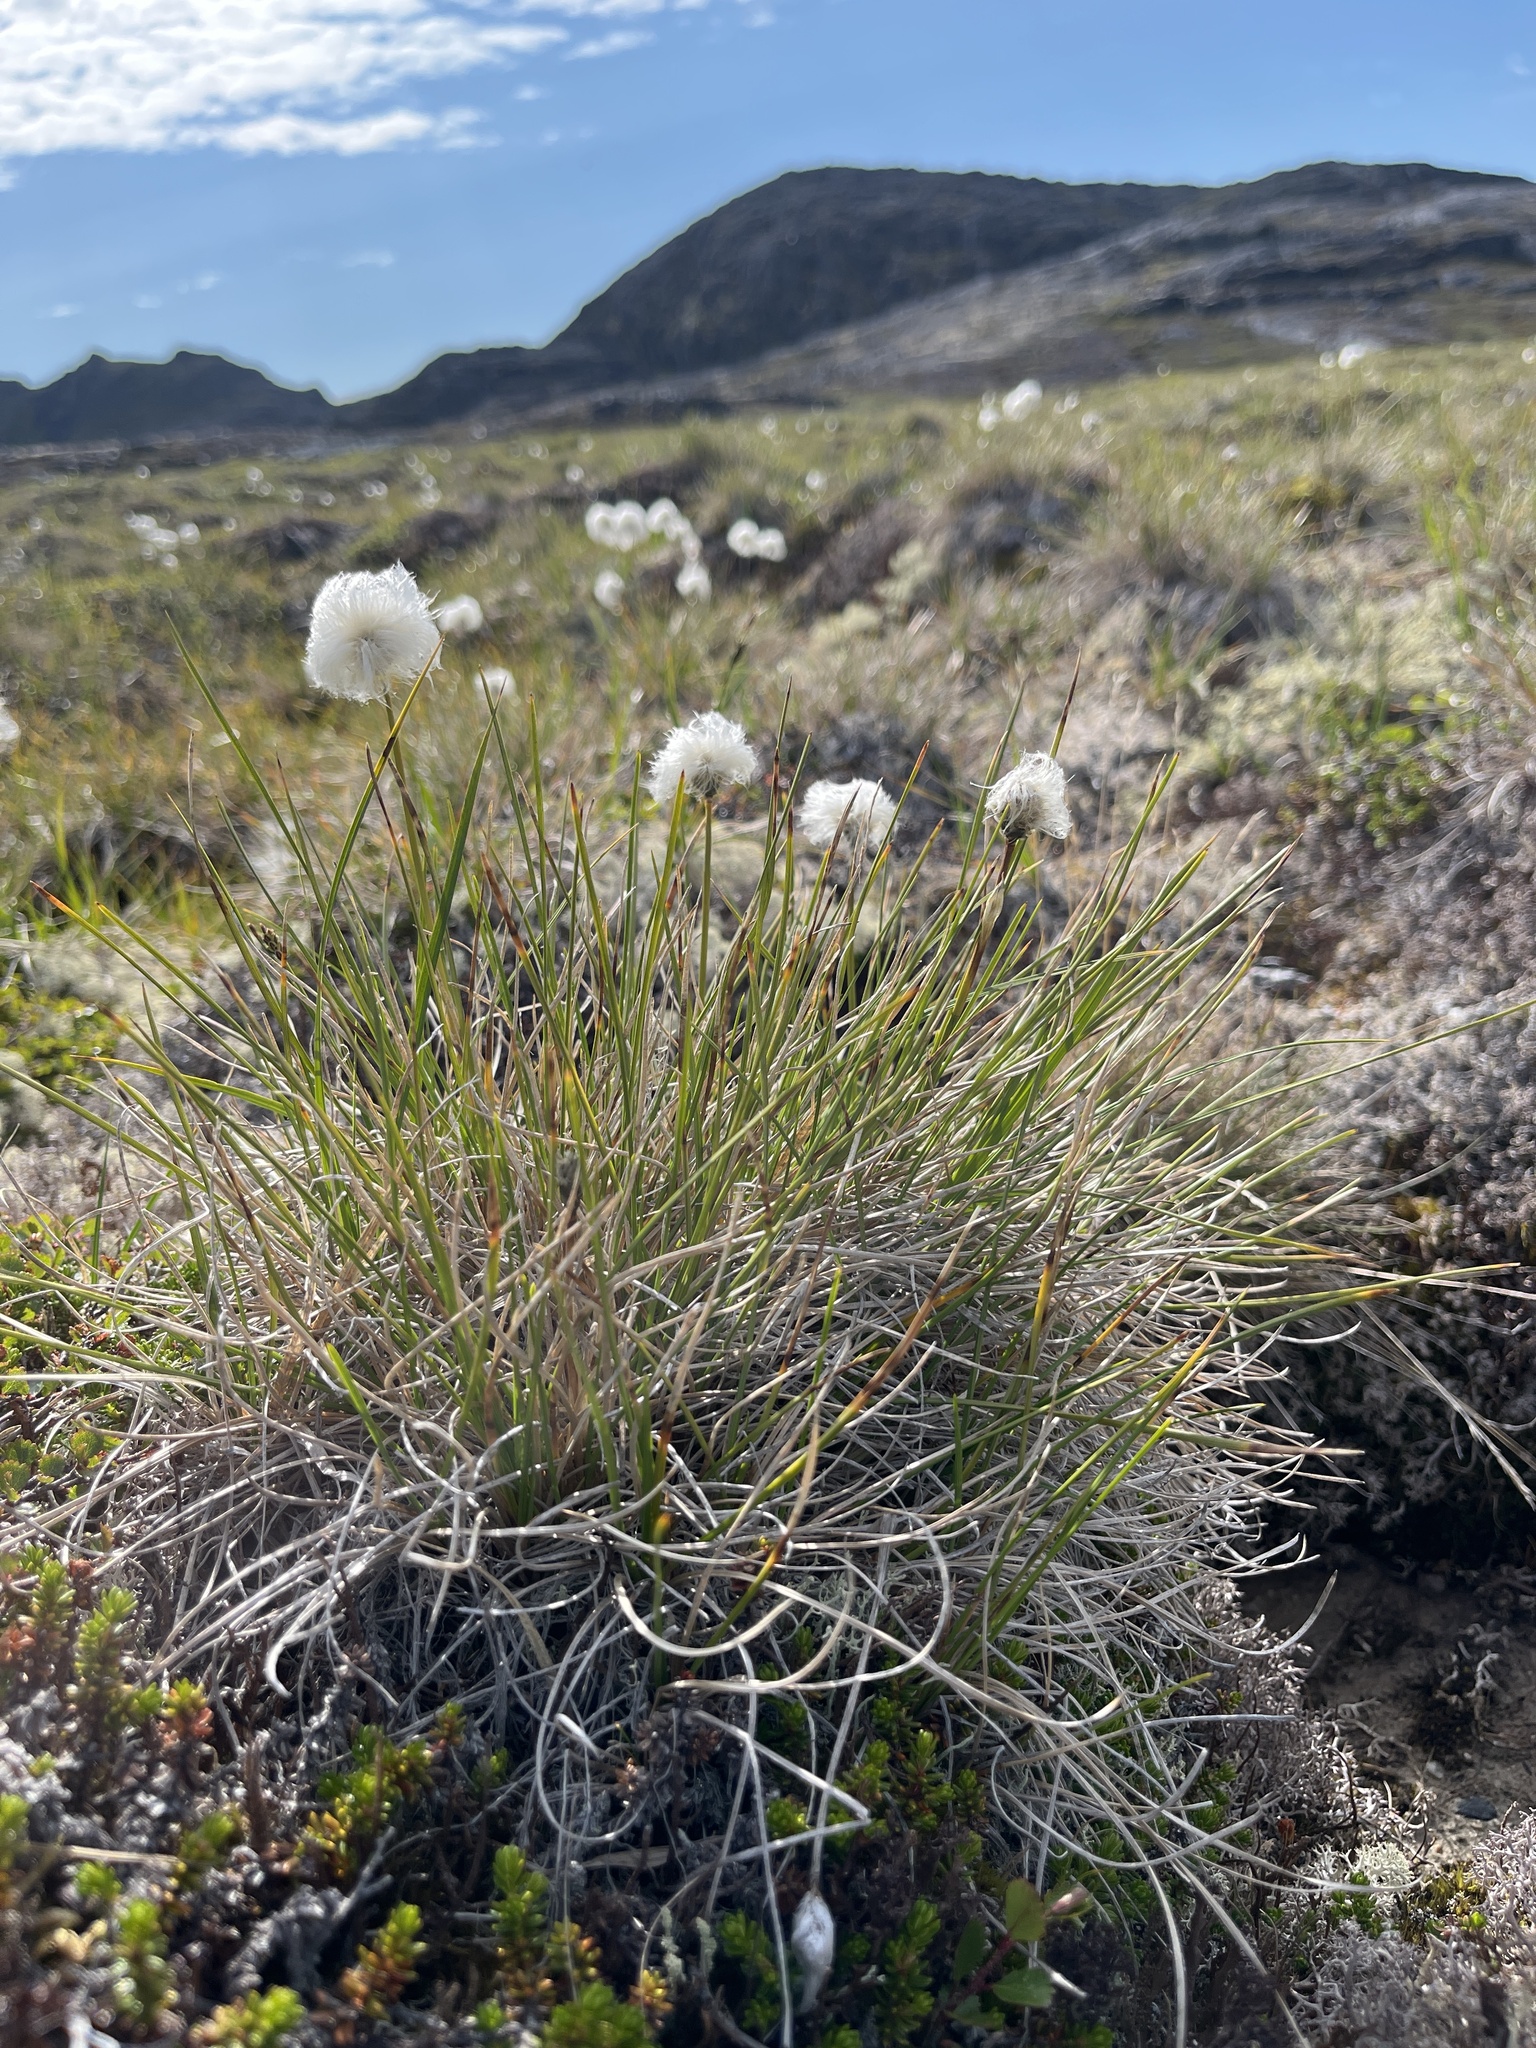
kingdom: Plantae
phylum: Tracheophyta
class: Liliopsida
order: Poales
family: Cyperaceae
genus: Eriophorum
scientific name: Eriophorum vaginatum
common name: Hare's-tail cottongrass
